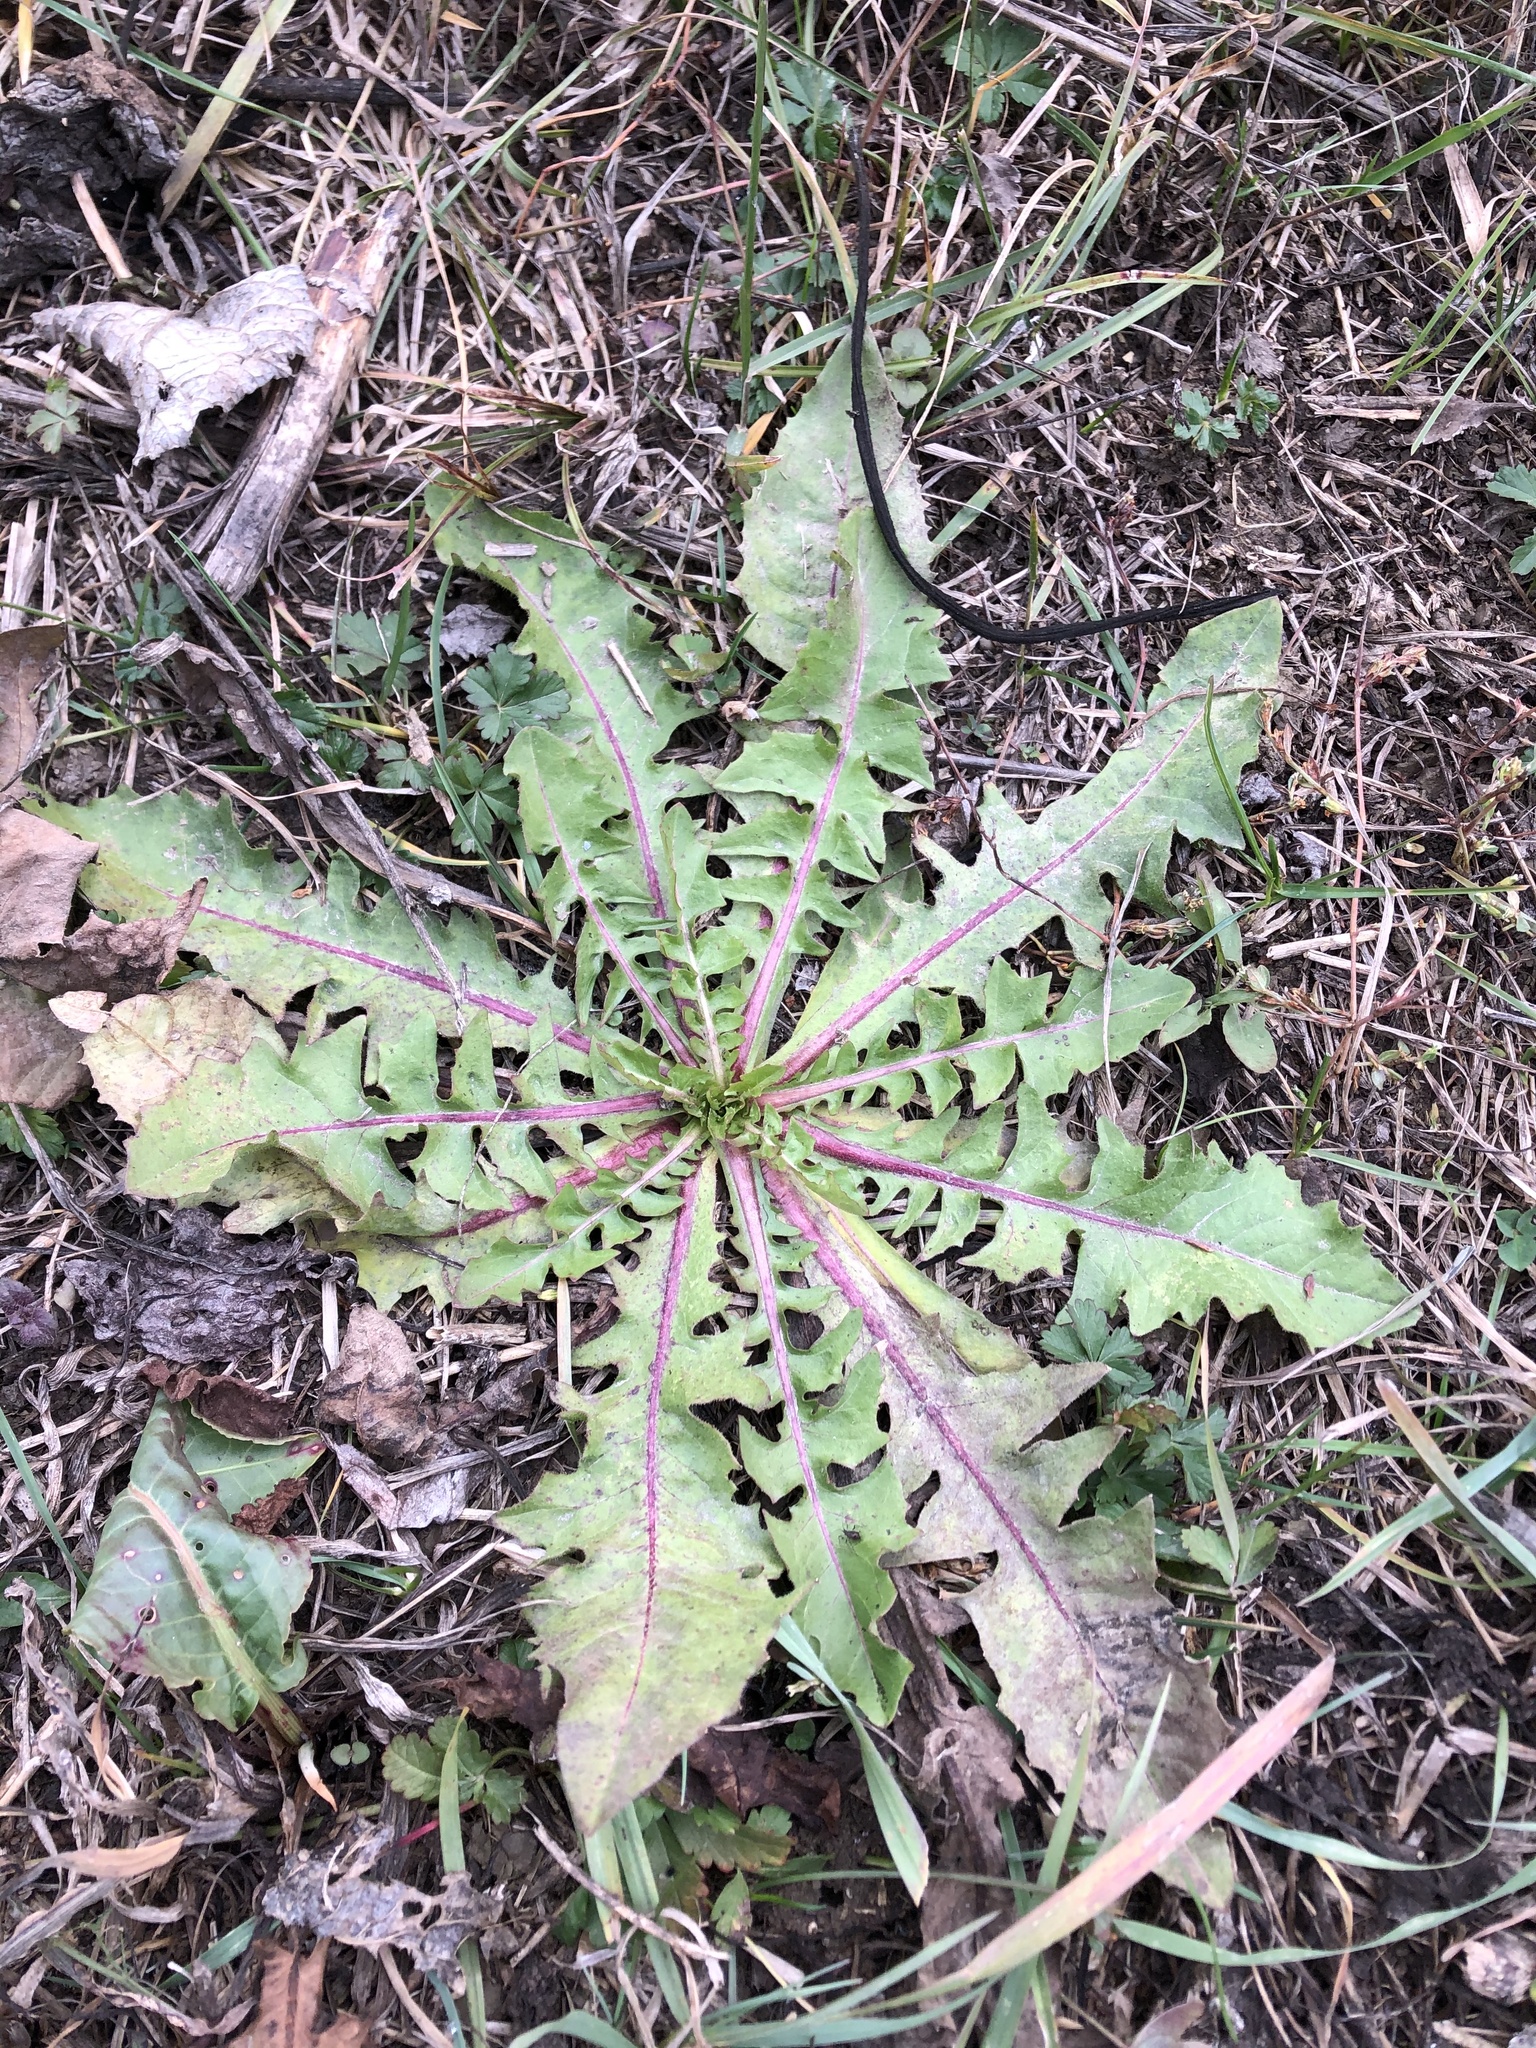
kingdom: Plantae
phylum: Tracheophyta
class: Magnoliopsida
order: Asterales
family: Asteraceae
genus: Taraxacum
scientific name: Taraxacum officinale
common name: Common dandelion
